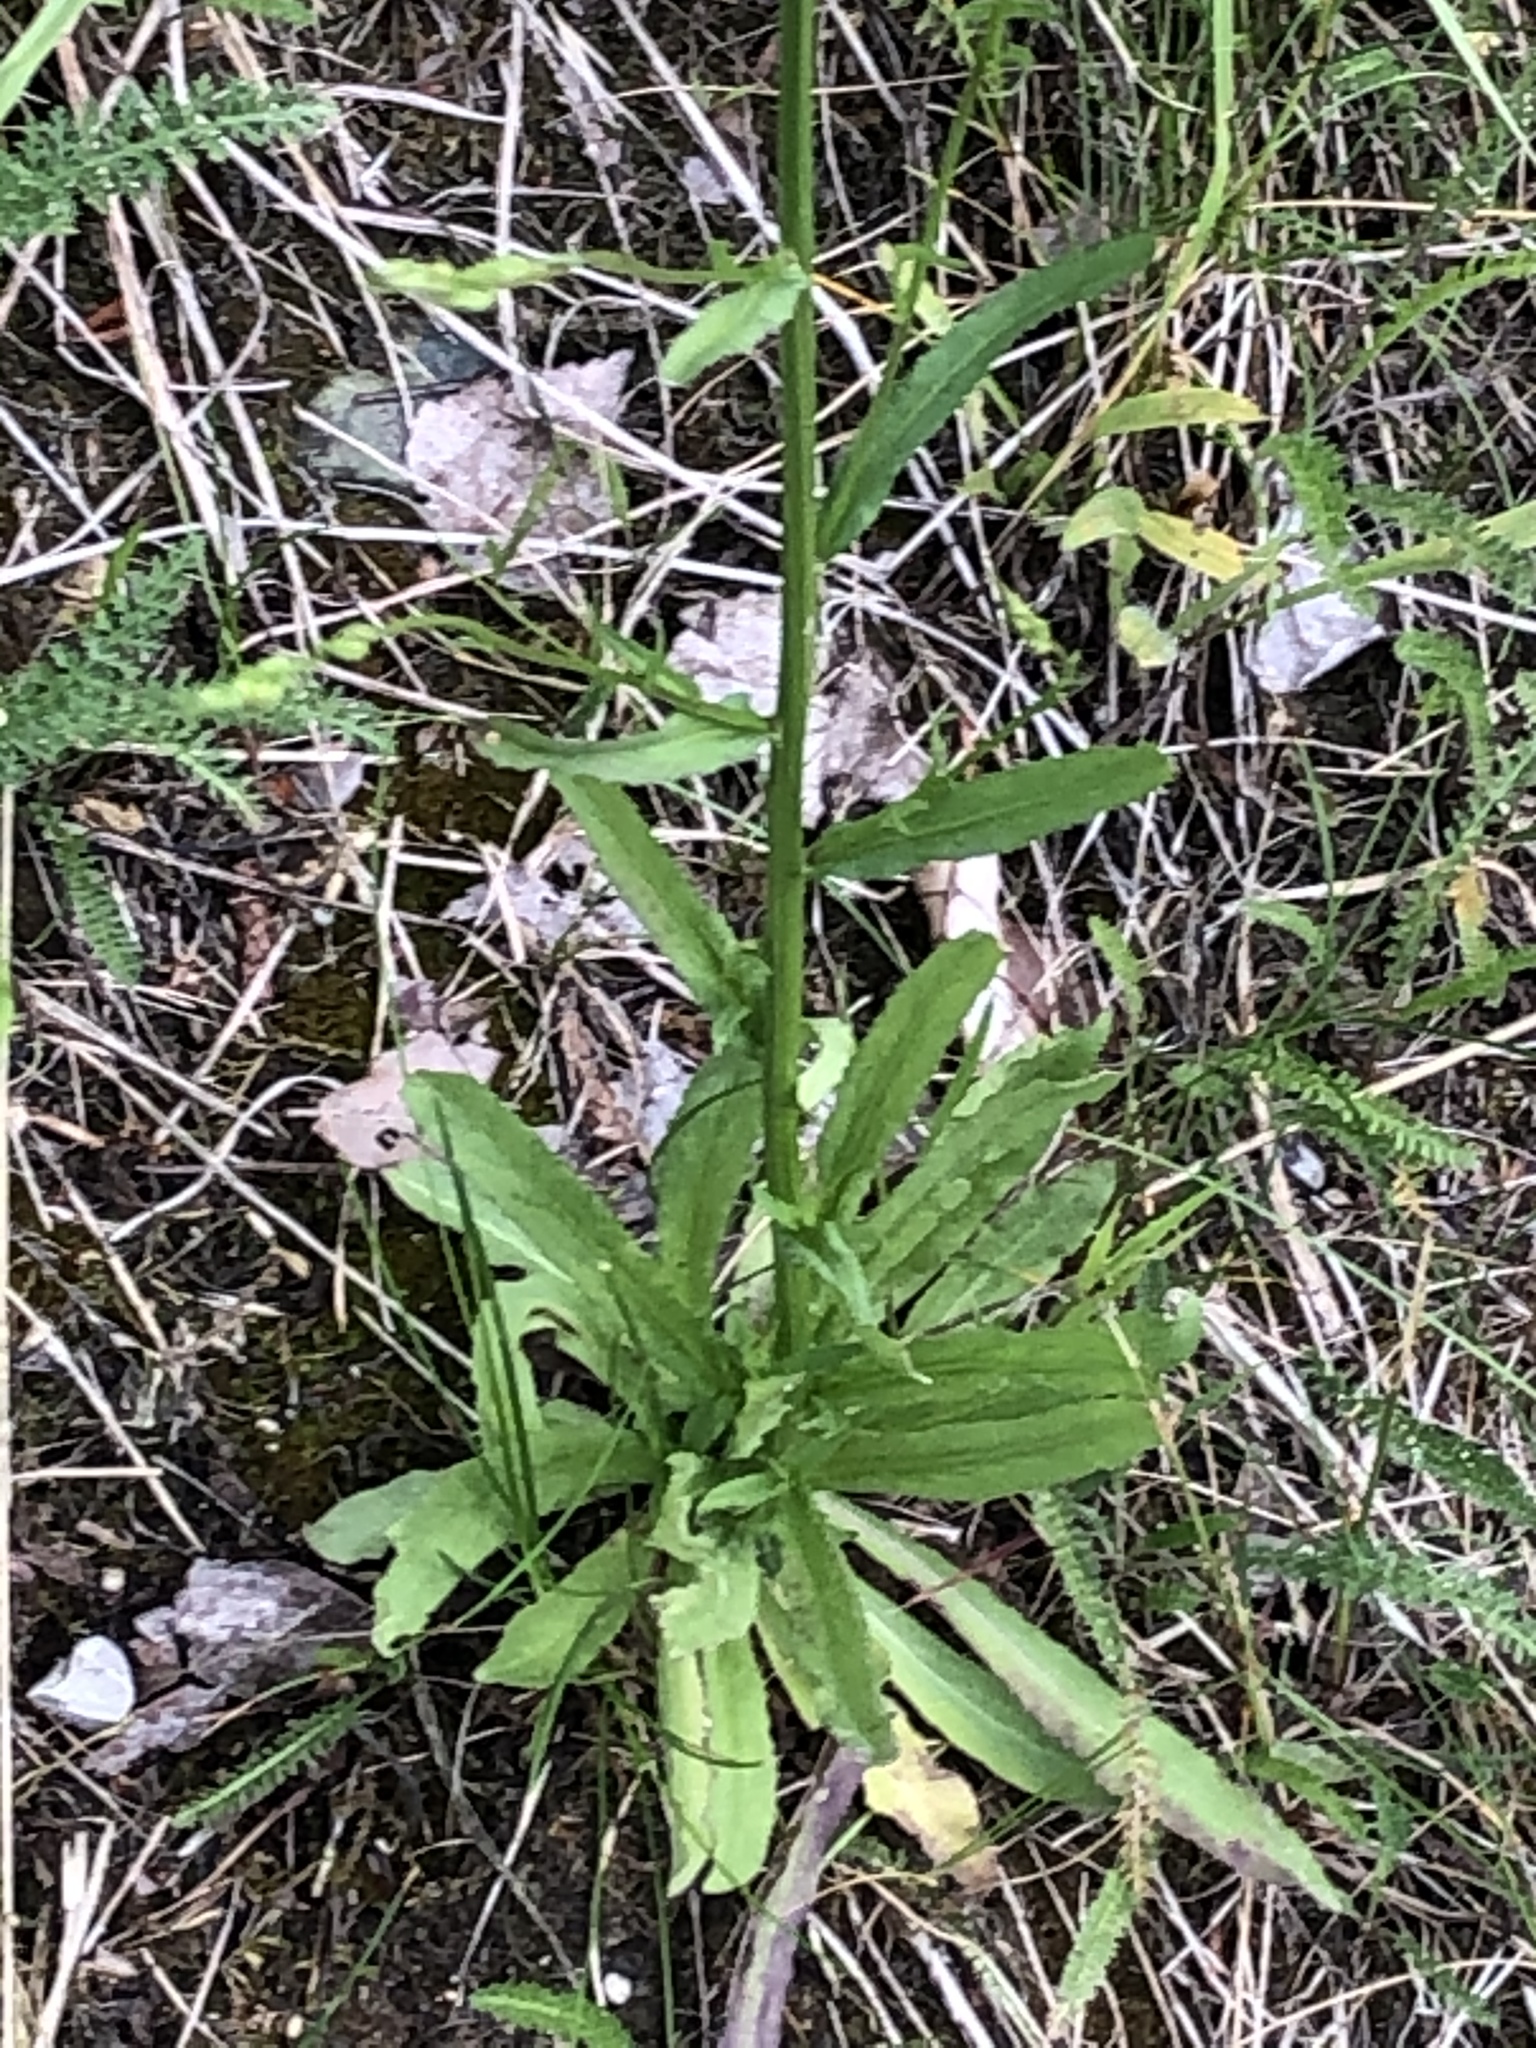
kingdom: Plantae
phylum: Tracheophyta
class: Magnoliopsida
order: Asterales
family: Campanulaceae
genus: Campanula
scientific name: Campanula rapunculus
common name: Rampion bellflower
